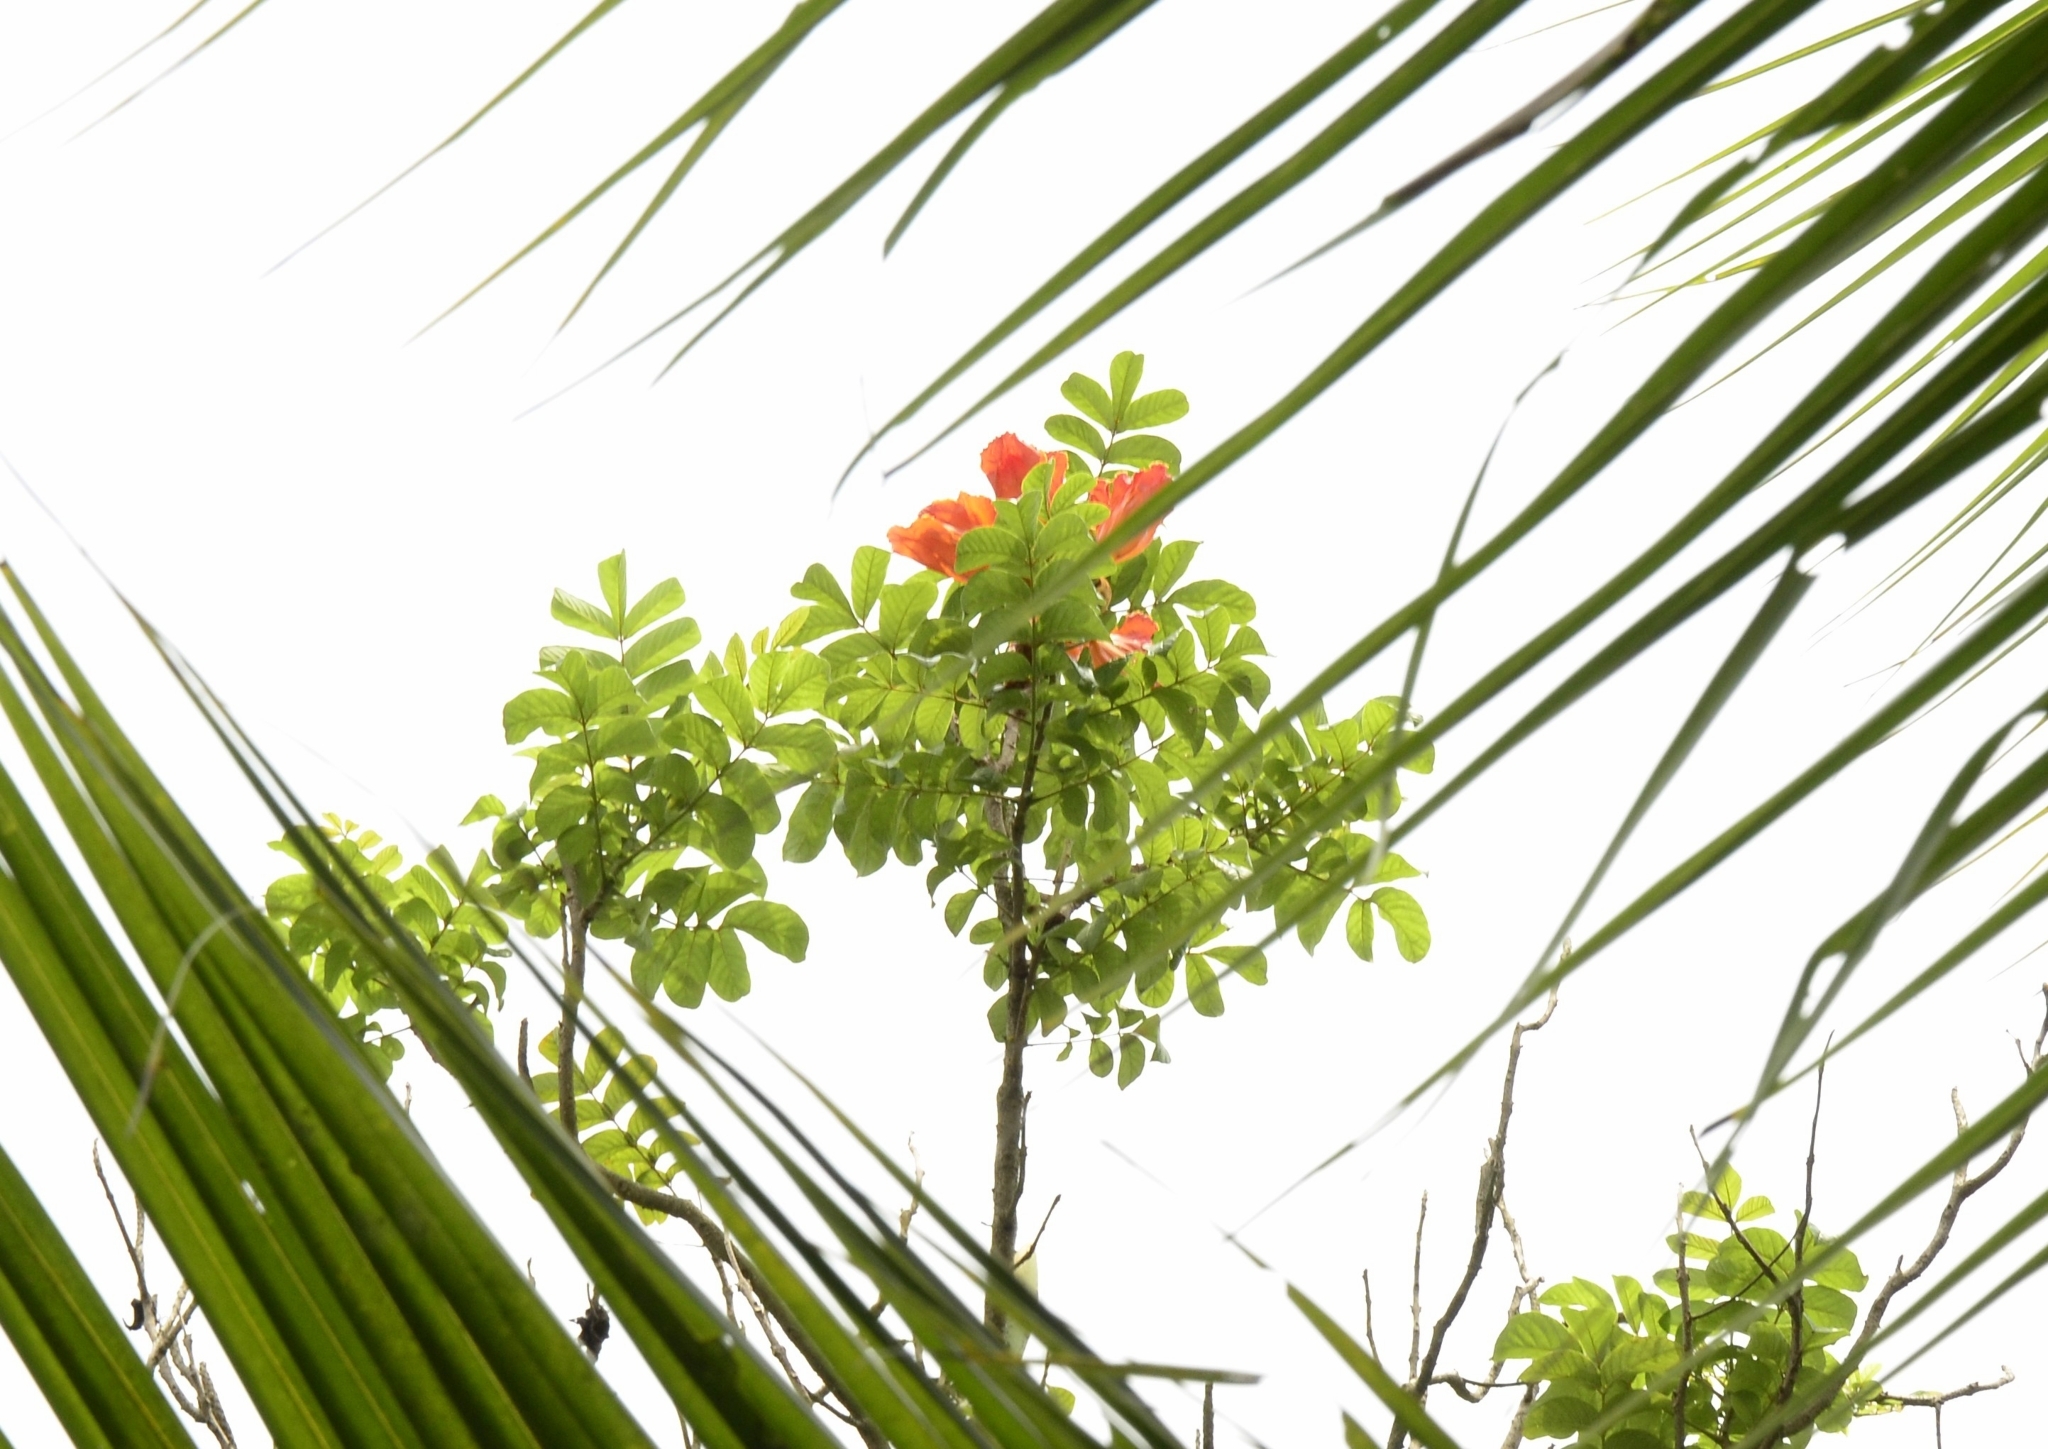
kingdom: Plantae
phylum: Tracheophyta
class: Magnoliopsida
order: Lamiales
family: Bignoniaceae
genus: Spathodea
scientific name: Spathodea campanulata
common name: African tuliptree
